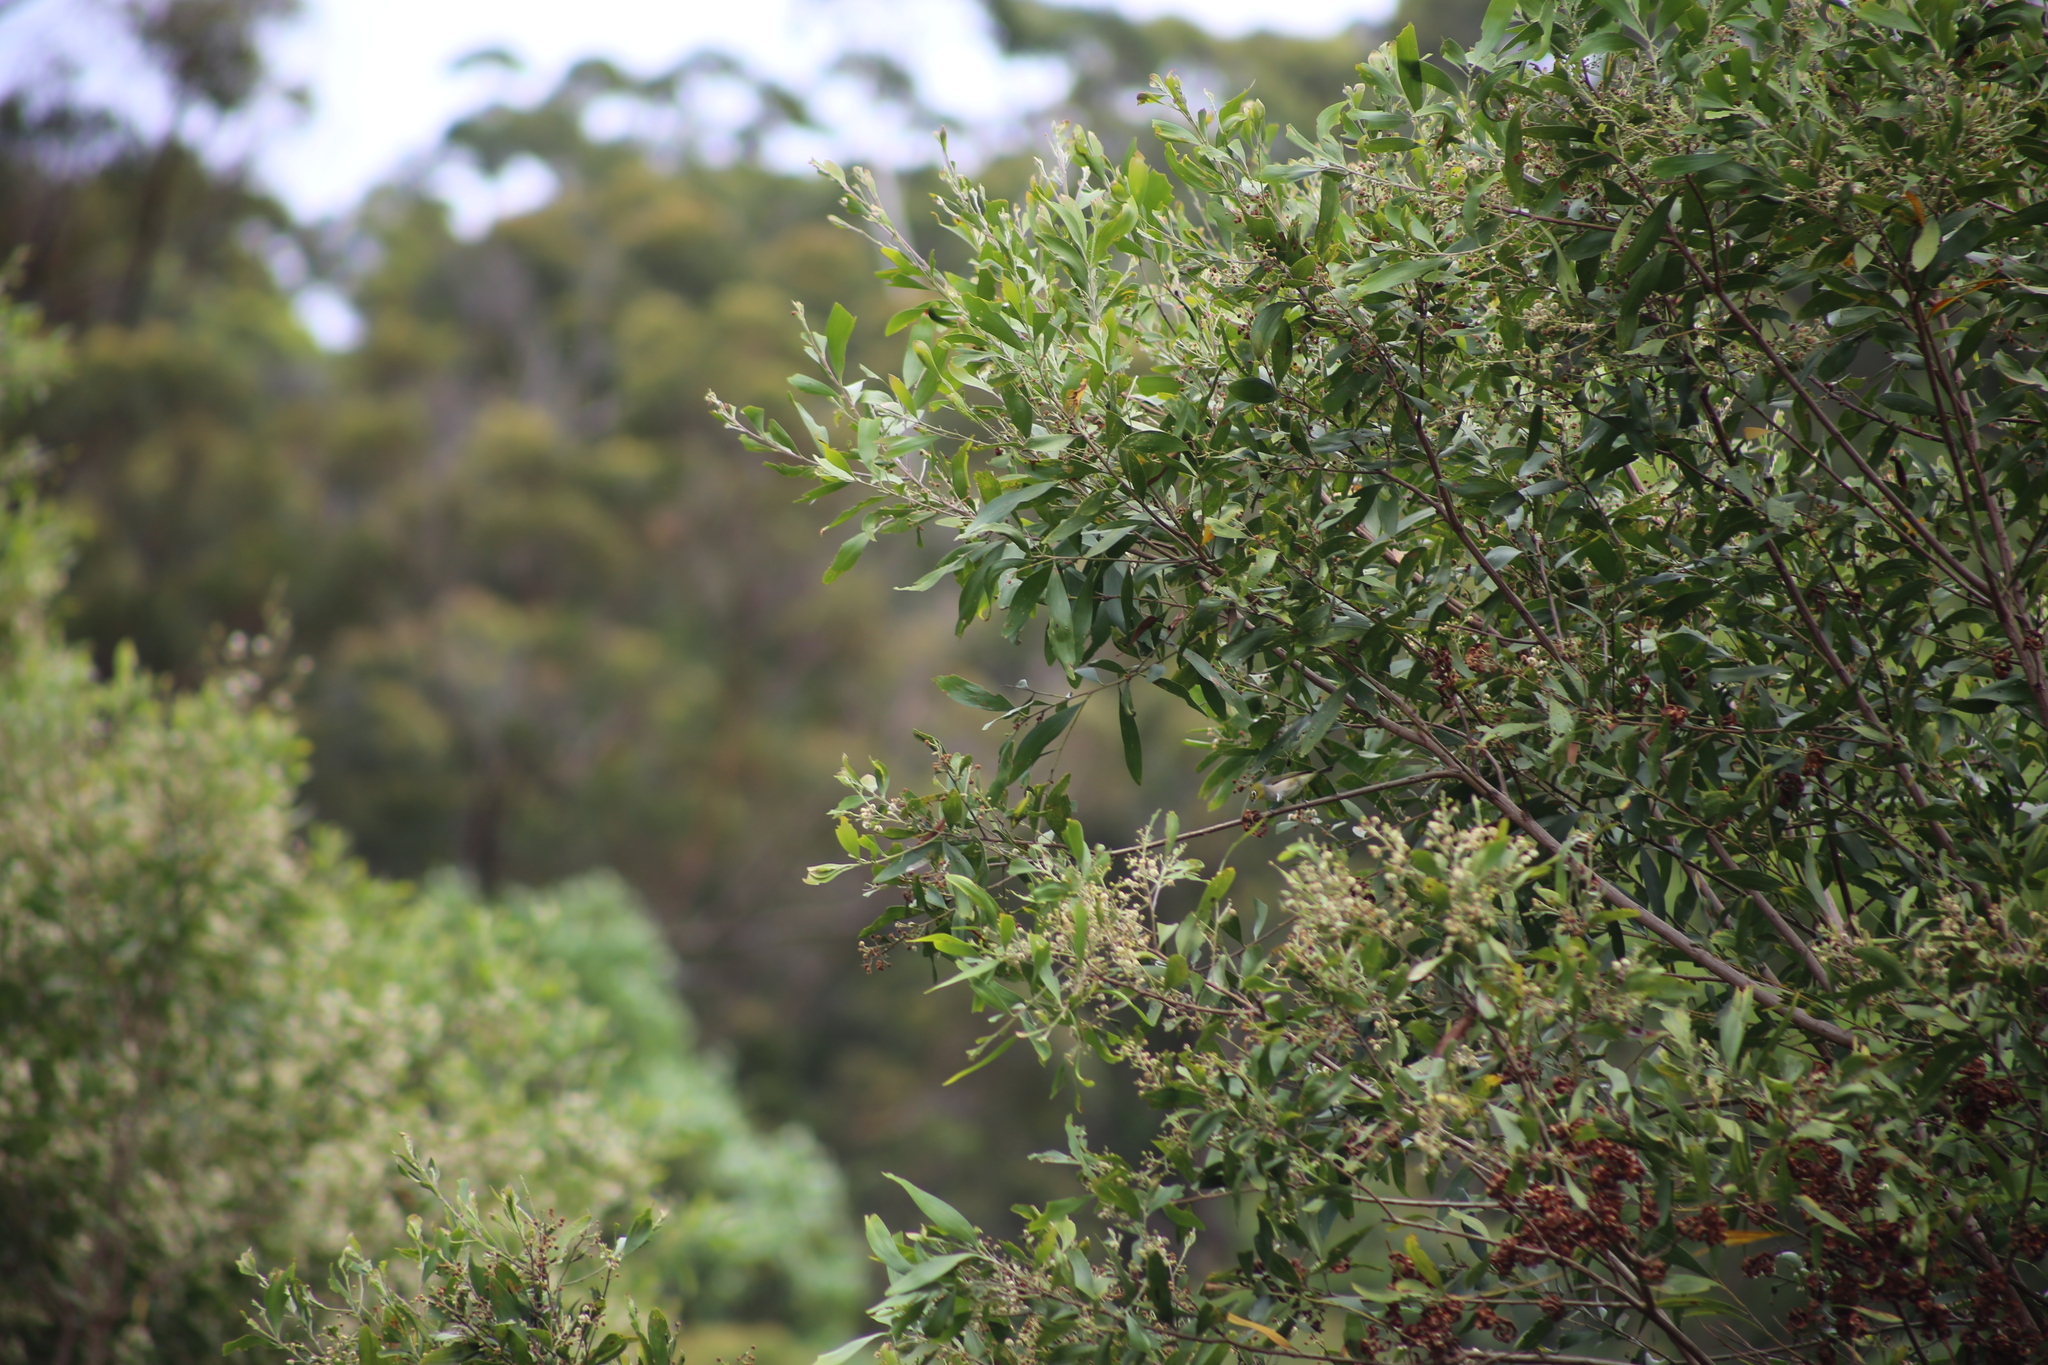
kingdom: Animalia
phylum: Chordata
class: Aves
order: Passeriformes
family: Zosteropidae
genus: Zosterops
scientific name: Zosterops lateralis
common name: Silvereye
